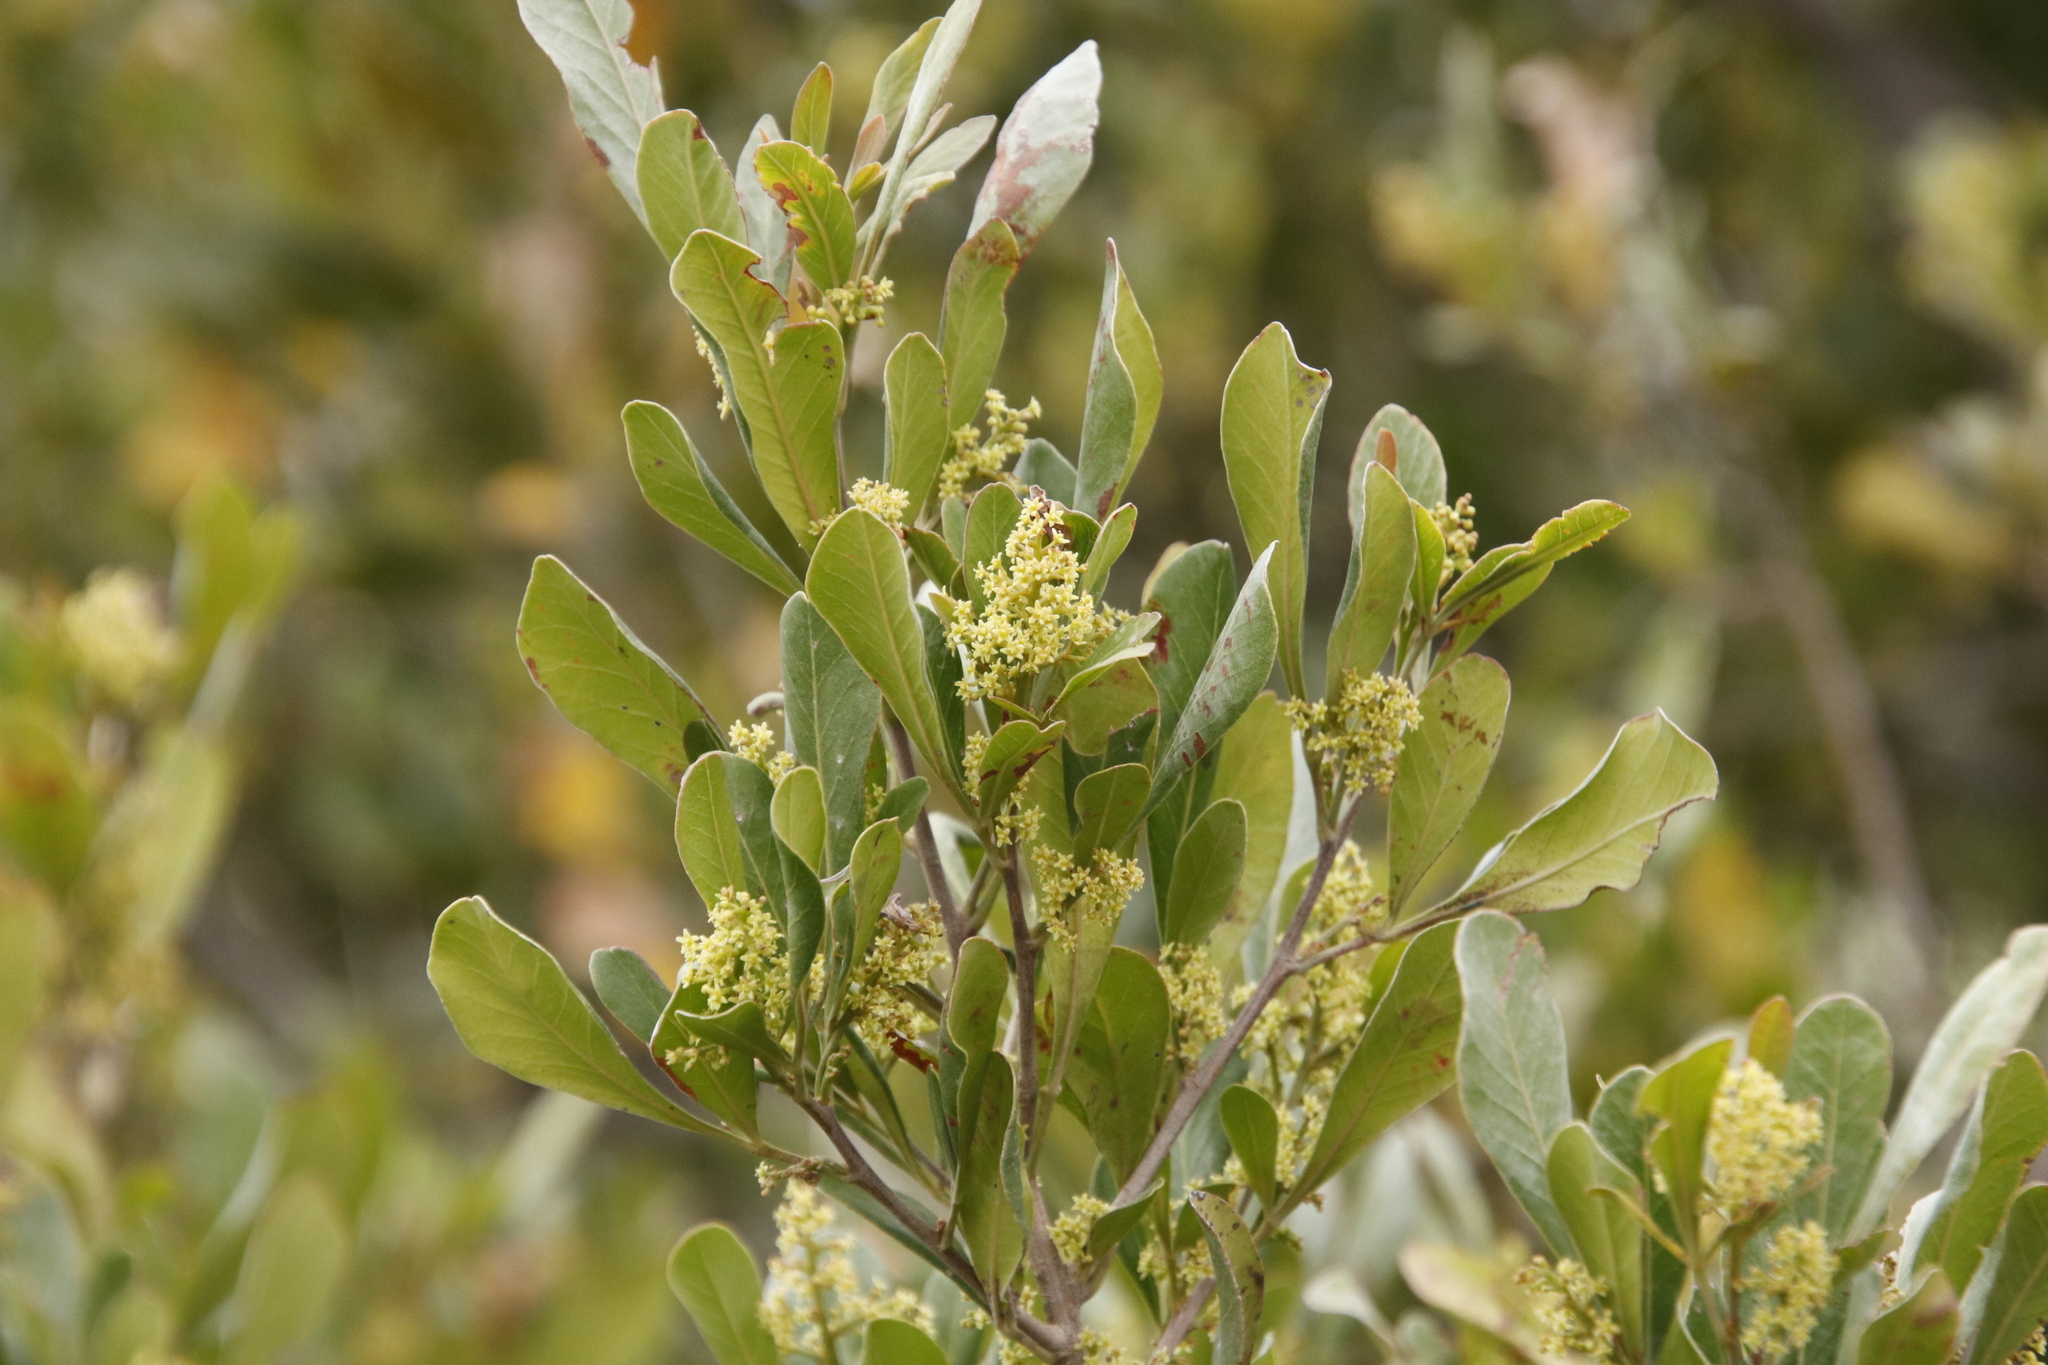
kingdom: Plantae
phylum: Tracheophyta
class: Magnoliopsida
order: Sapindales
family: Anacardiaceae
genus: Searsia
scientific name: Searsia pallens
